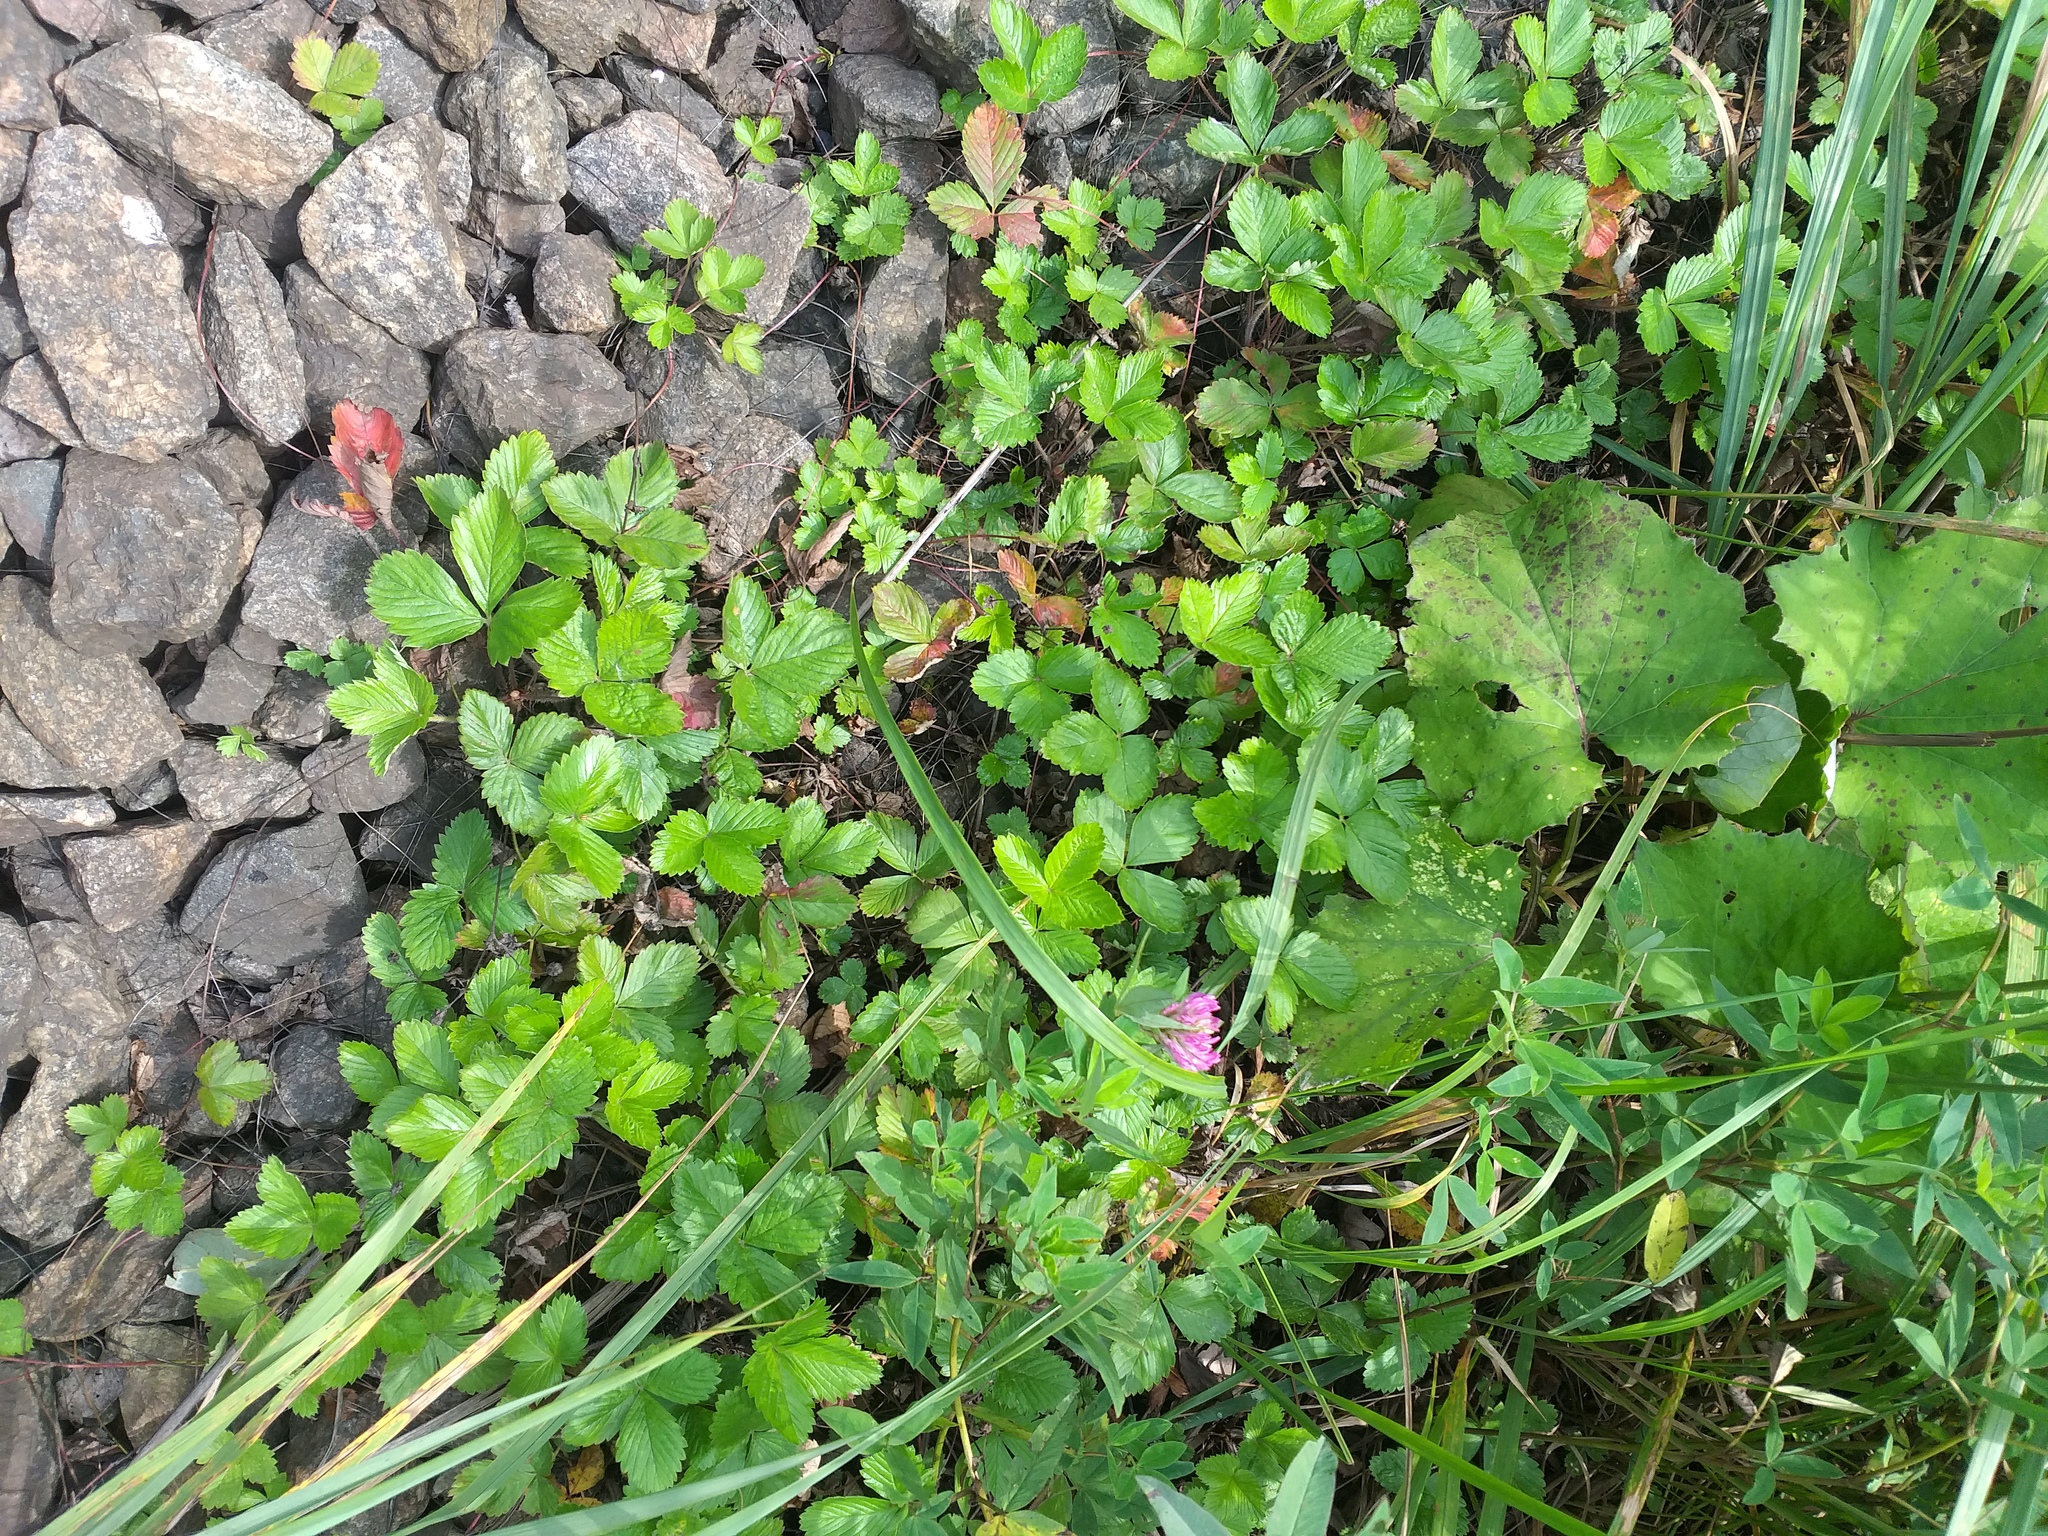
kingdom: Plantae
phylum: Tracheophyta
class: Magnoliopsida
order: Rosales
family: Rosaceae
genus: Fragaria
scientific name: Fragaria vesca
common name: Wild strawberry
